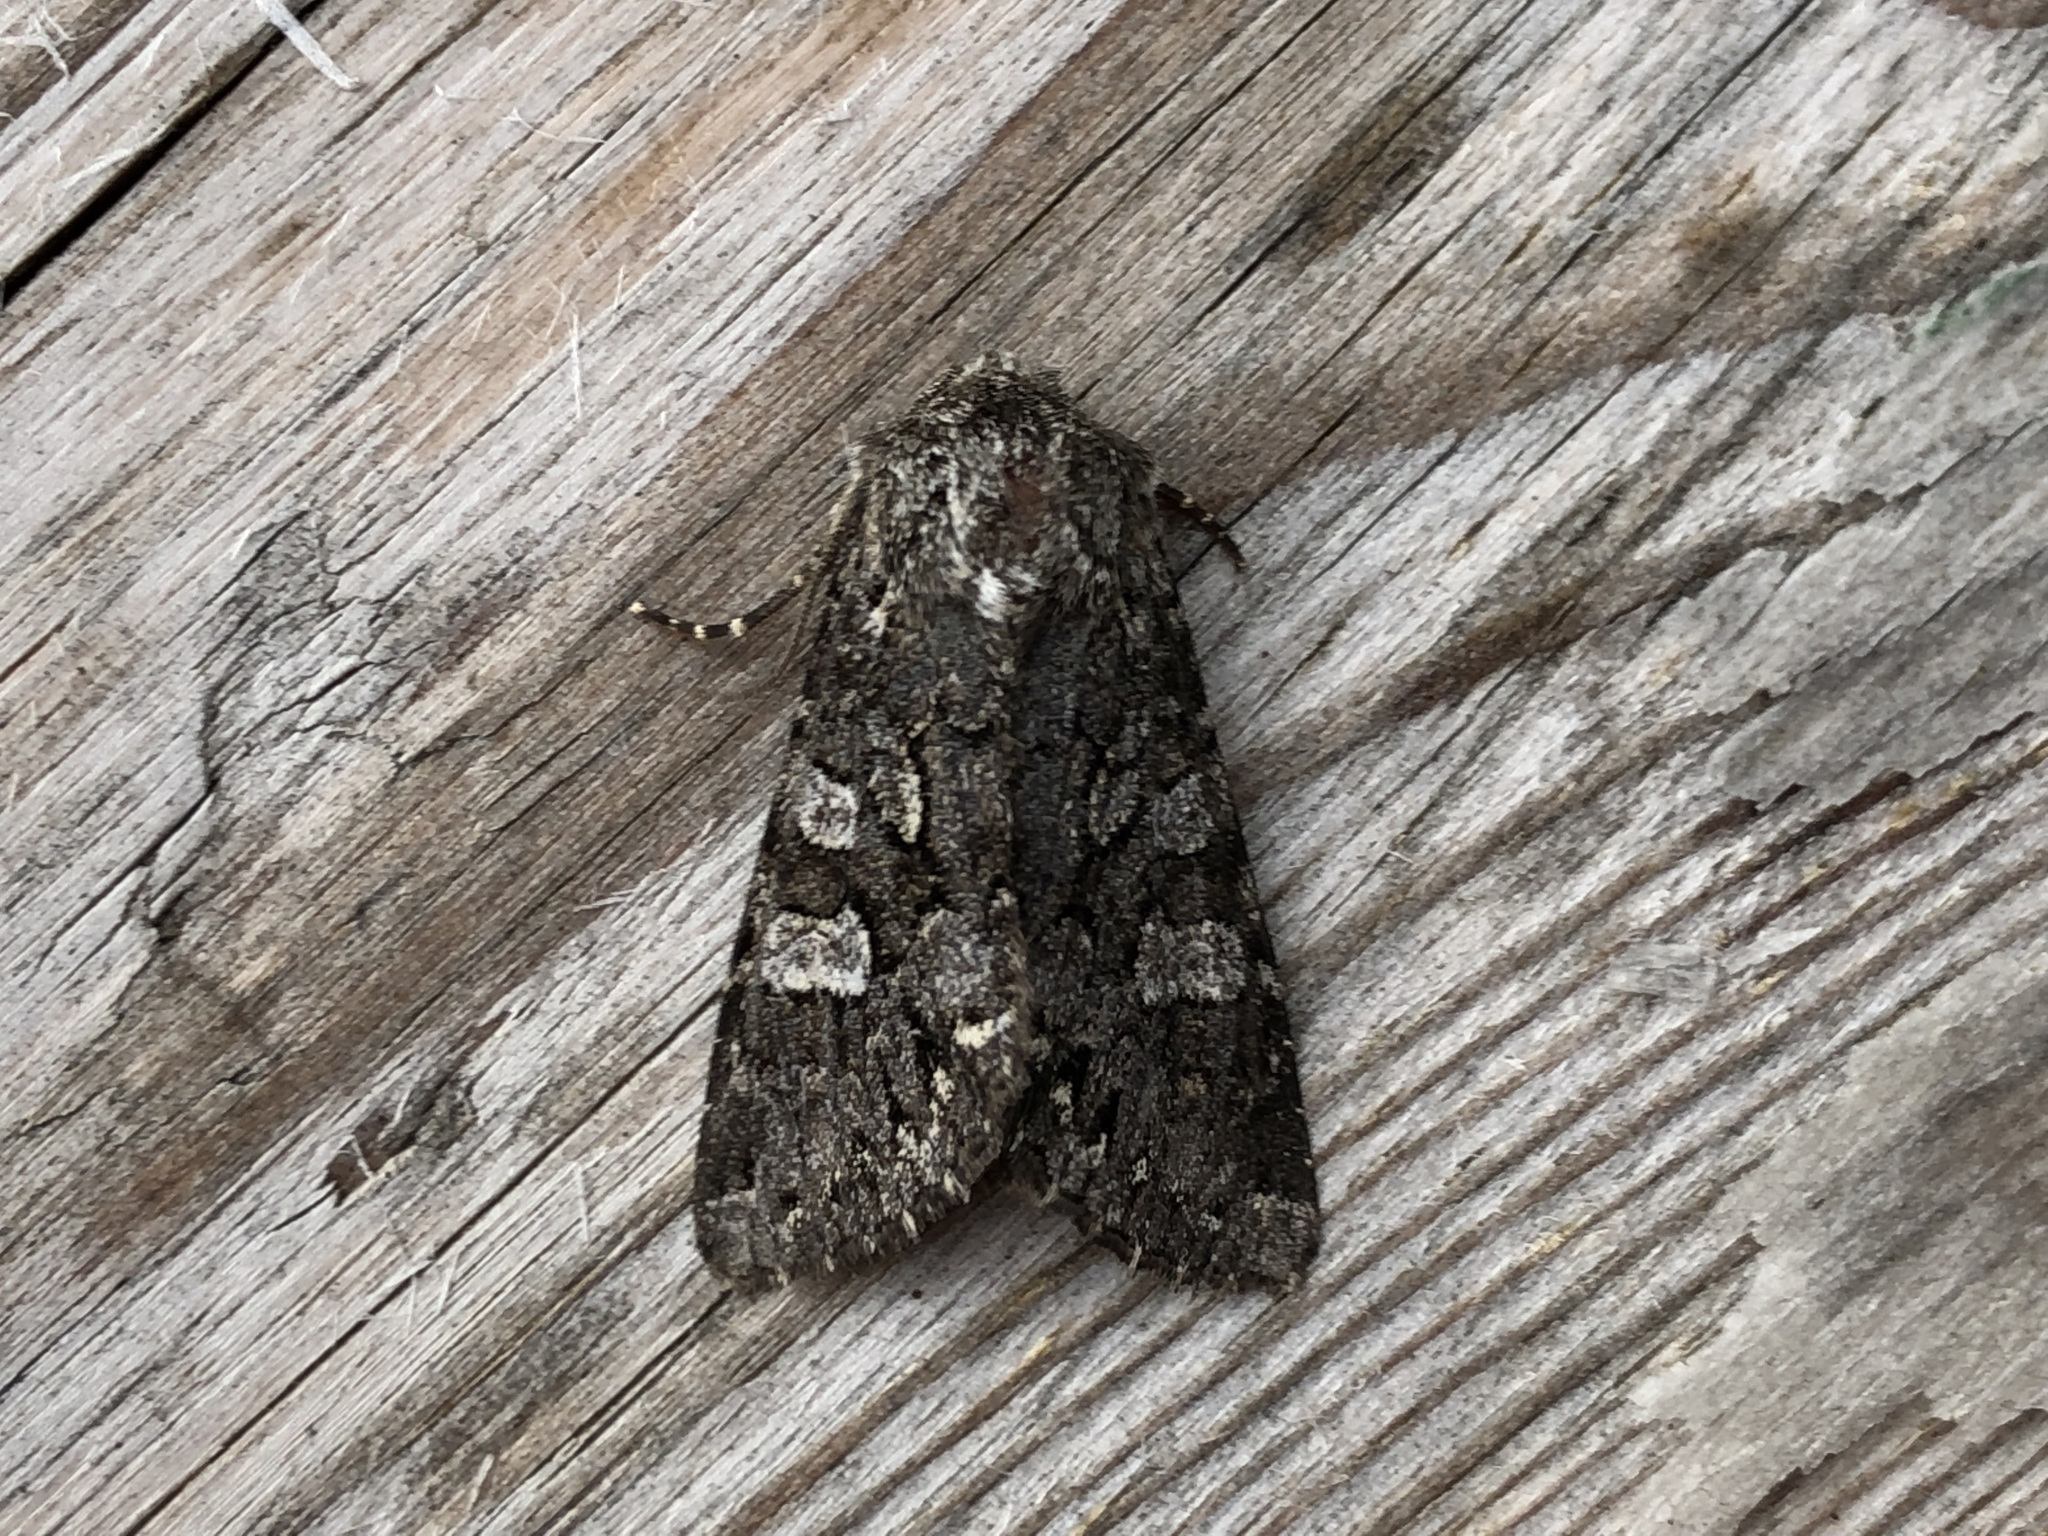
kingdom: Animalia
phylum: Arthropoda
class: Insecta
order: Lepidoptera
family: Noctuidae
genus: Papestra
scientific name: Papestra biren
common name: Glaucous shears
